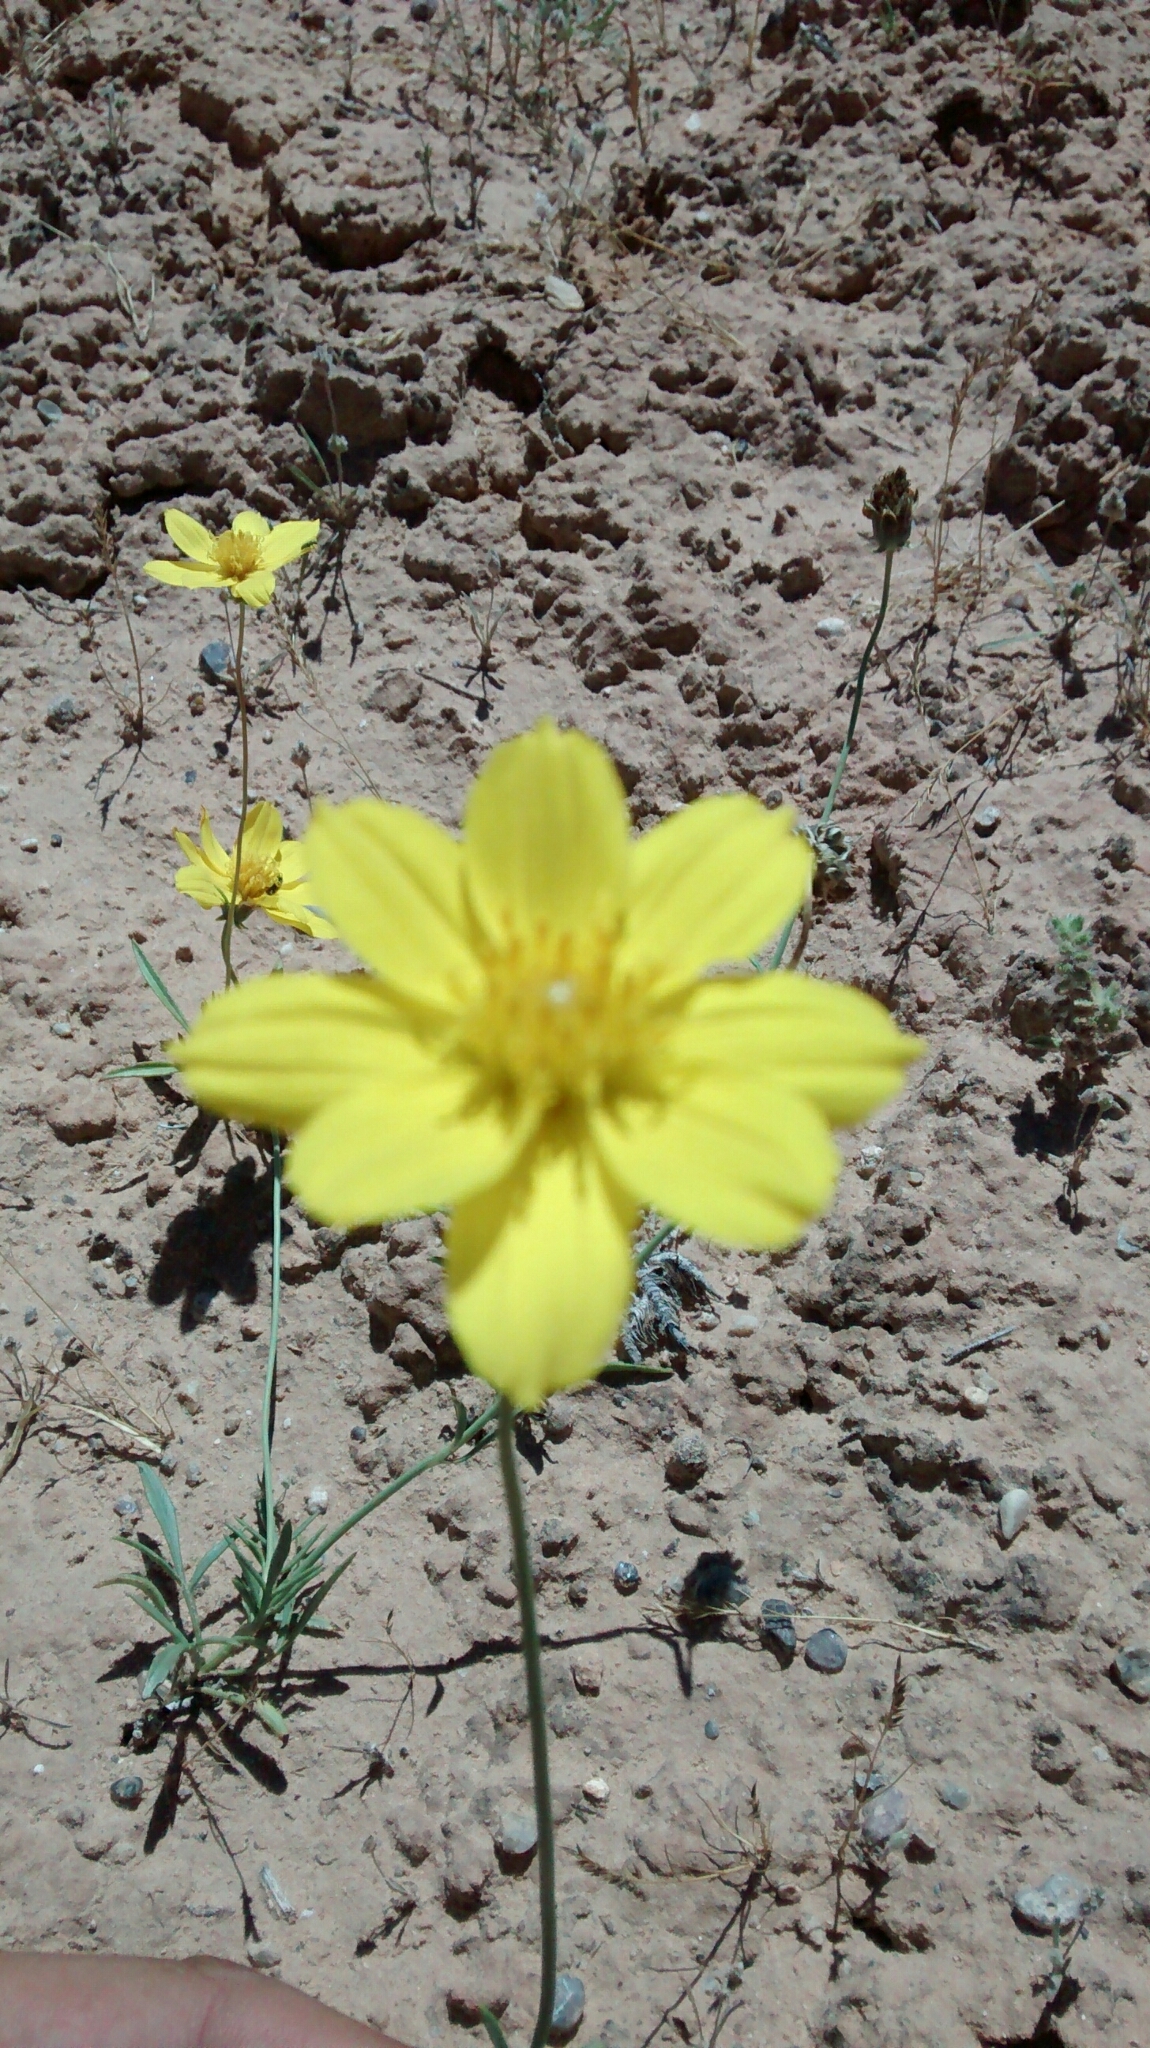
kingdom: Plantae
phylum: Tracheophyta
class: Magnoliopsida
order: Asterales
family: Asteraceae
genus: Thelesperma
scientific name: Thelesperma subnudum
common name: Navajo tea
